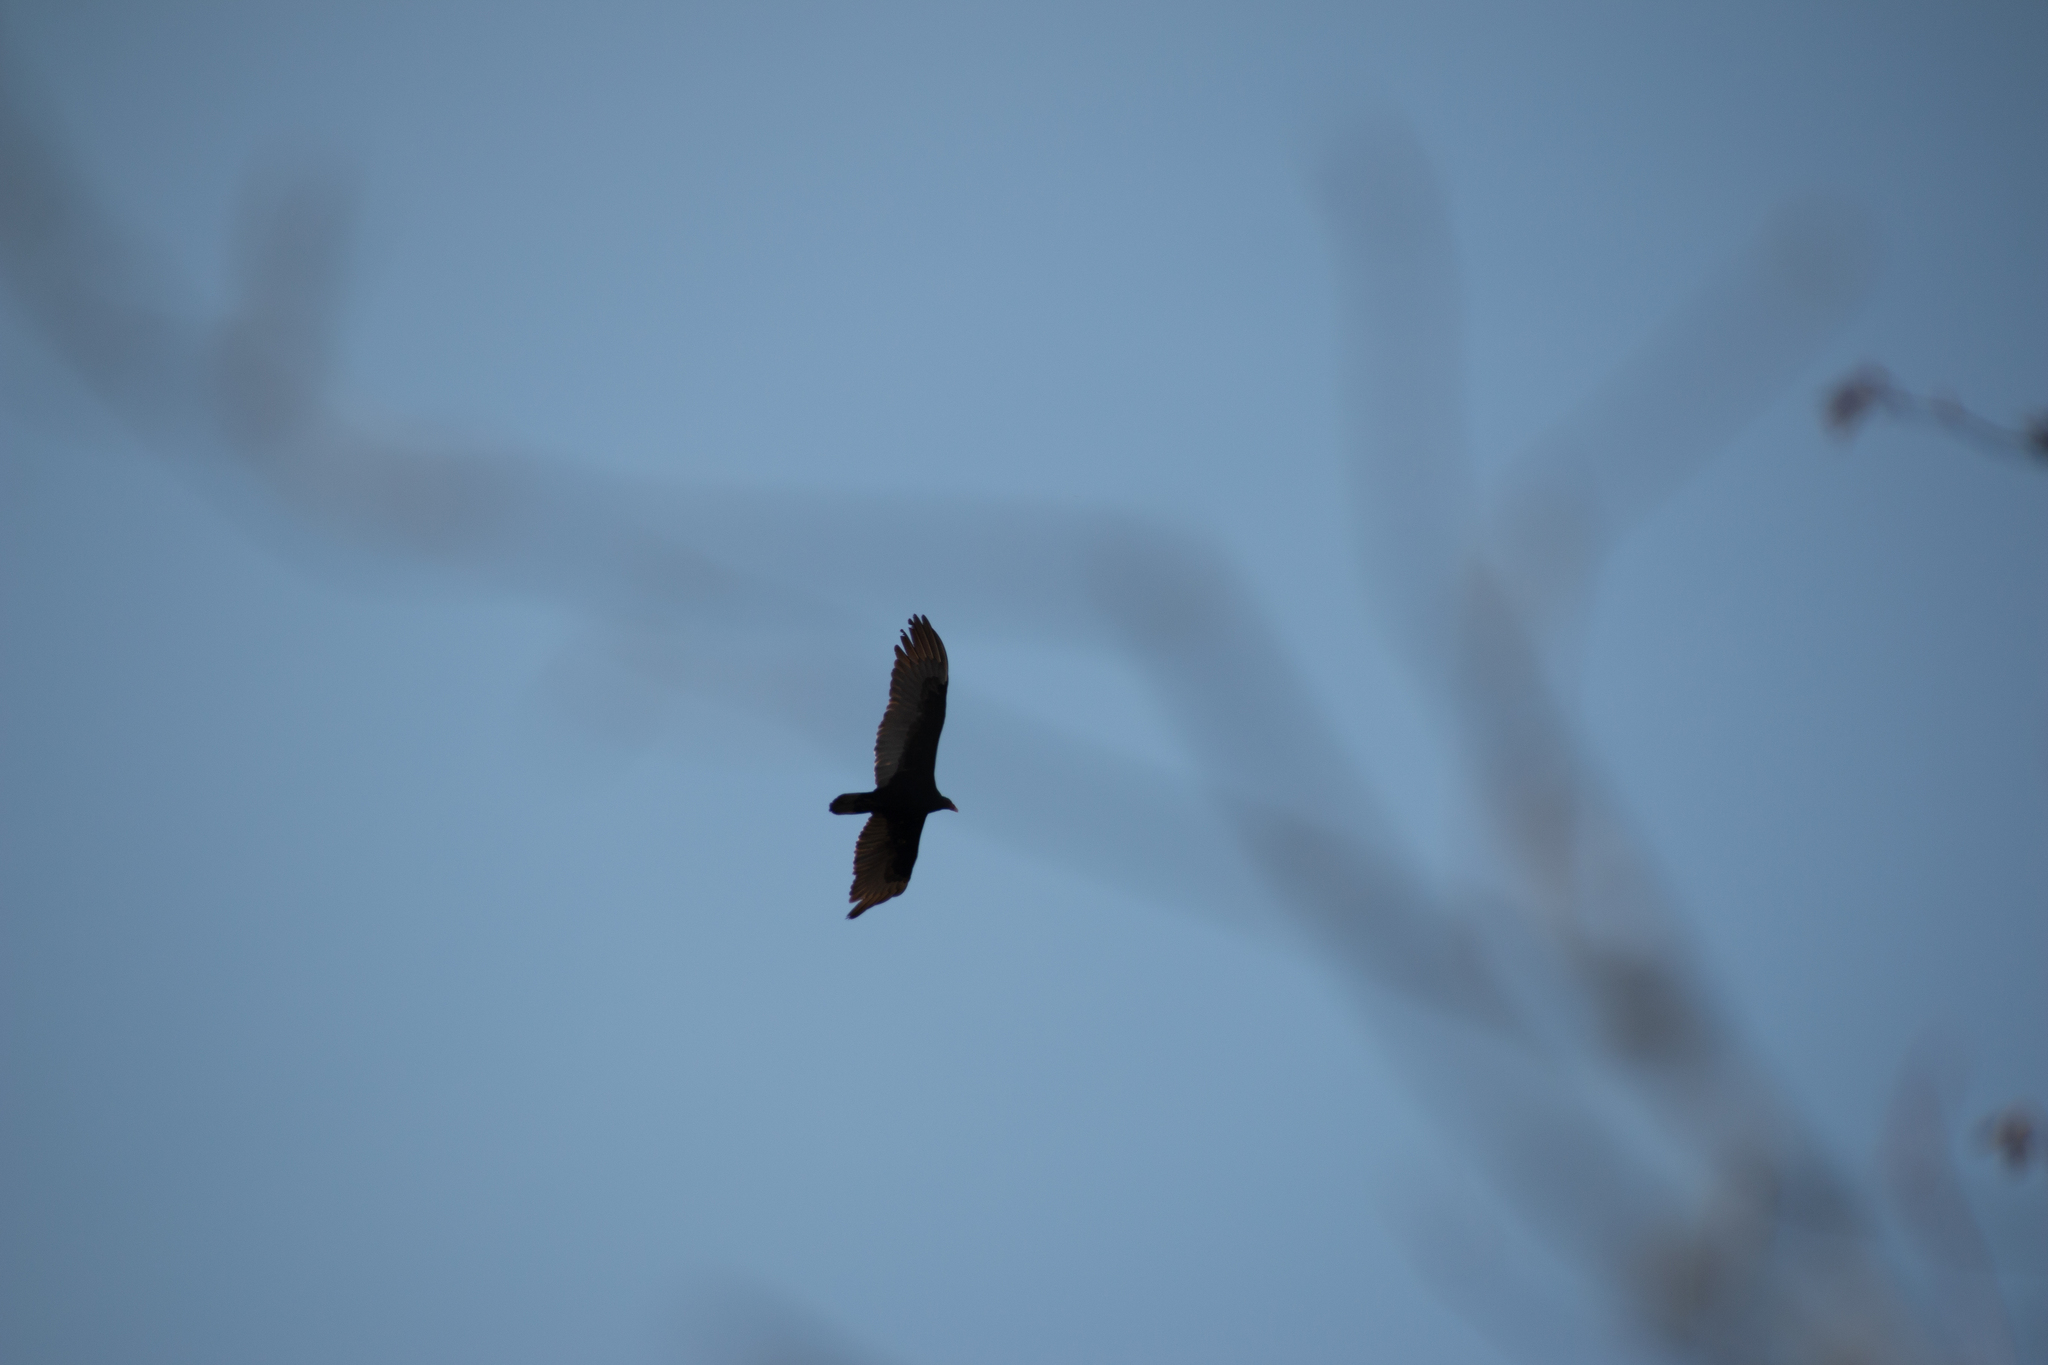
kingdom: Animalia
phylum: Chordata
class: Aves
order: Accipitriformes
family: Cathartidae
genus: Cathartes
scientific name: Cathartes aura
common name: Turkey vulture
